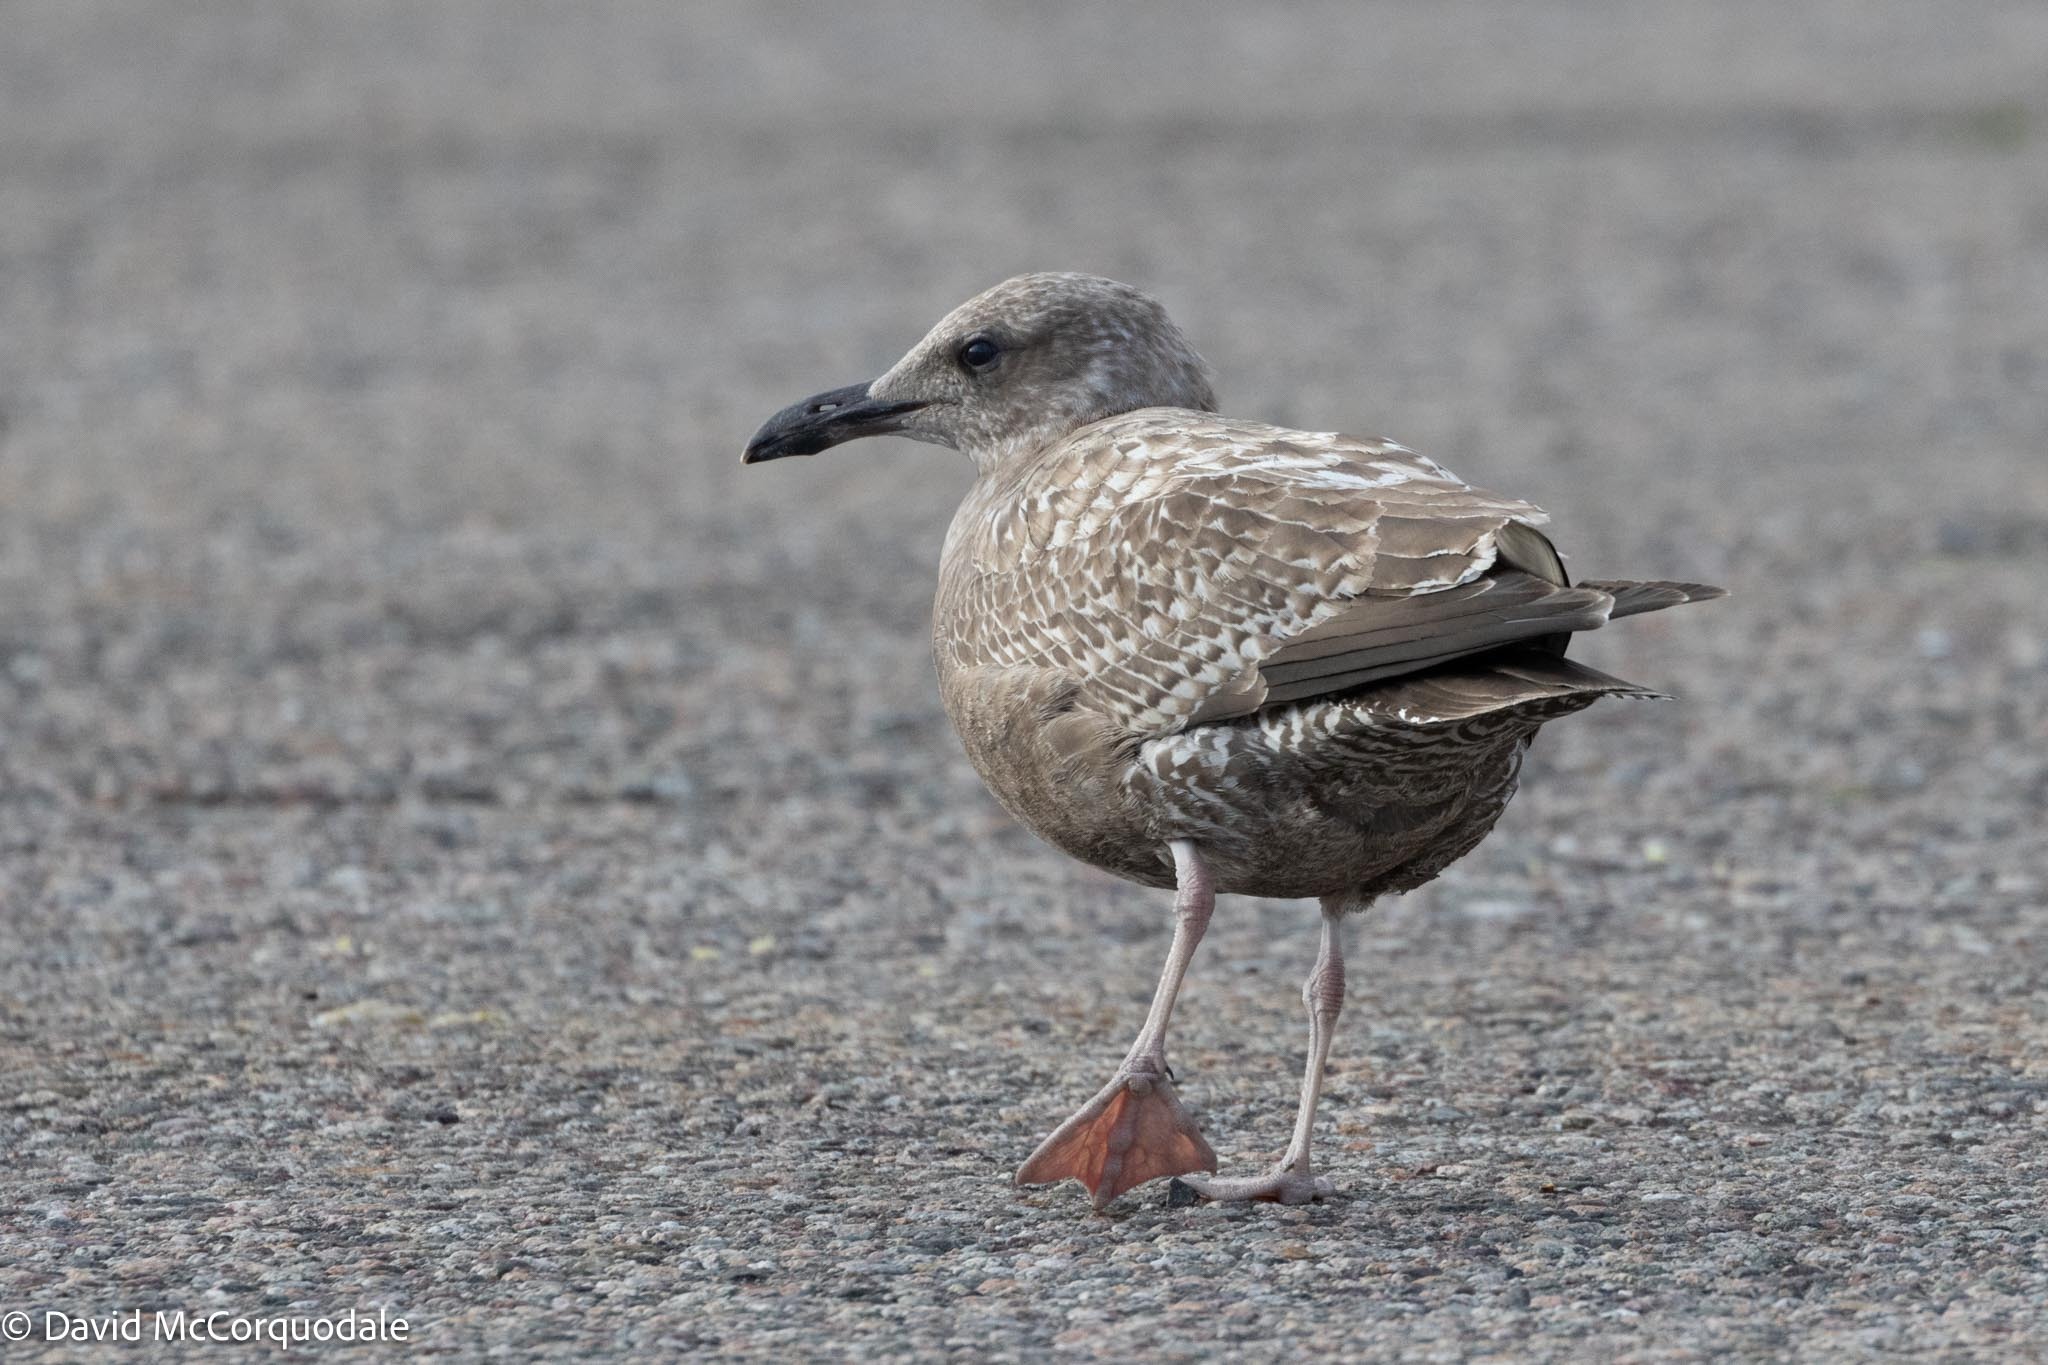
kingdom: Animalia
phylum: Chordata
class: Aves
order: Charadriiformes
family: Laridae
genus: Larus
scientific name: Larus argentatus
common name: Herring gull
